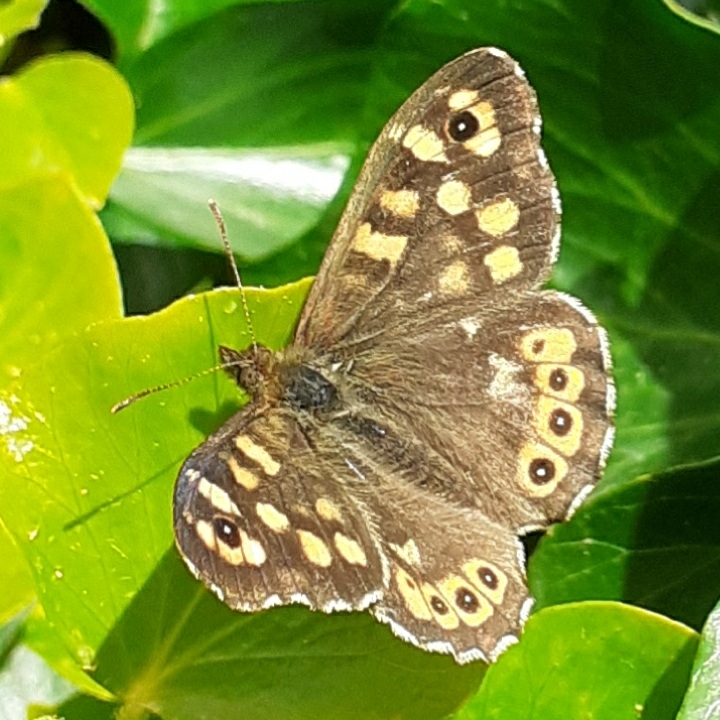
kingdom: Animalia
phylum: Arthropoda
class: Insecta
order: Lepidoptera
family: Nymphalidae
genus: Pararge
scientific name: Pararge aegeria
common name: Speckled wood
